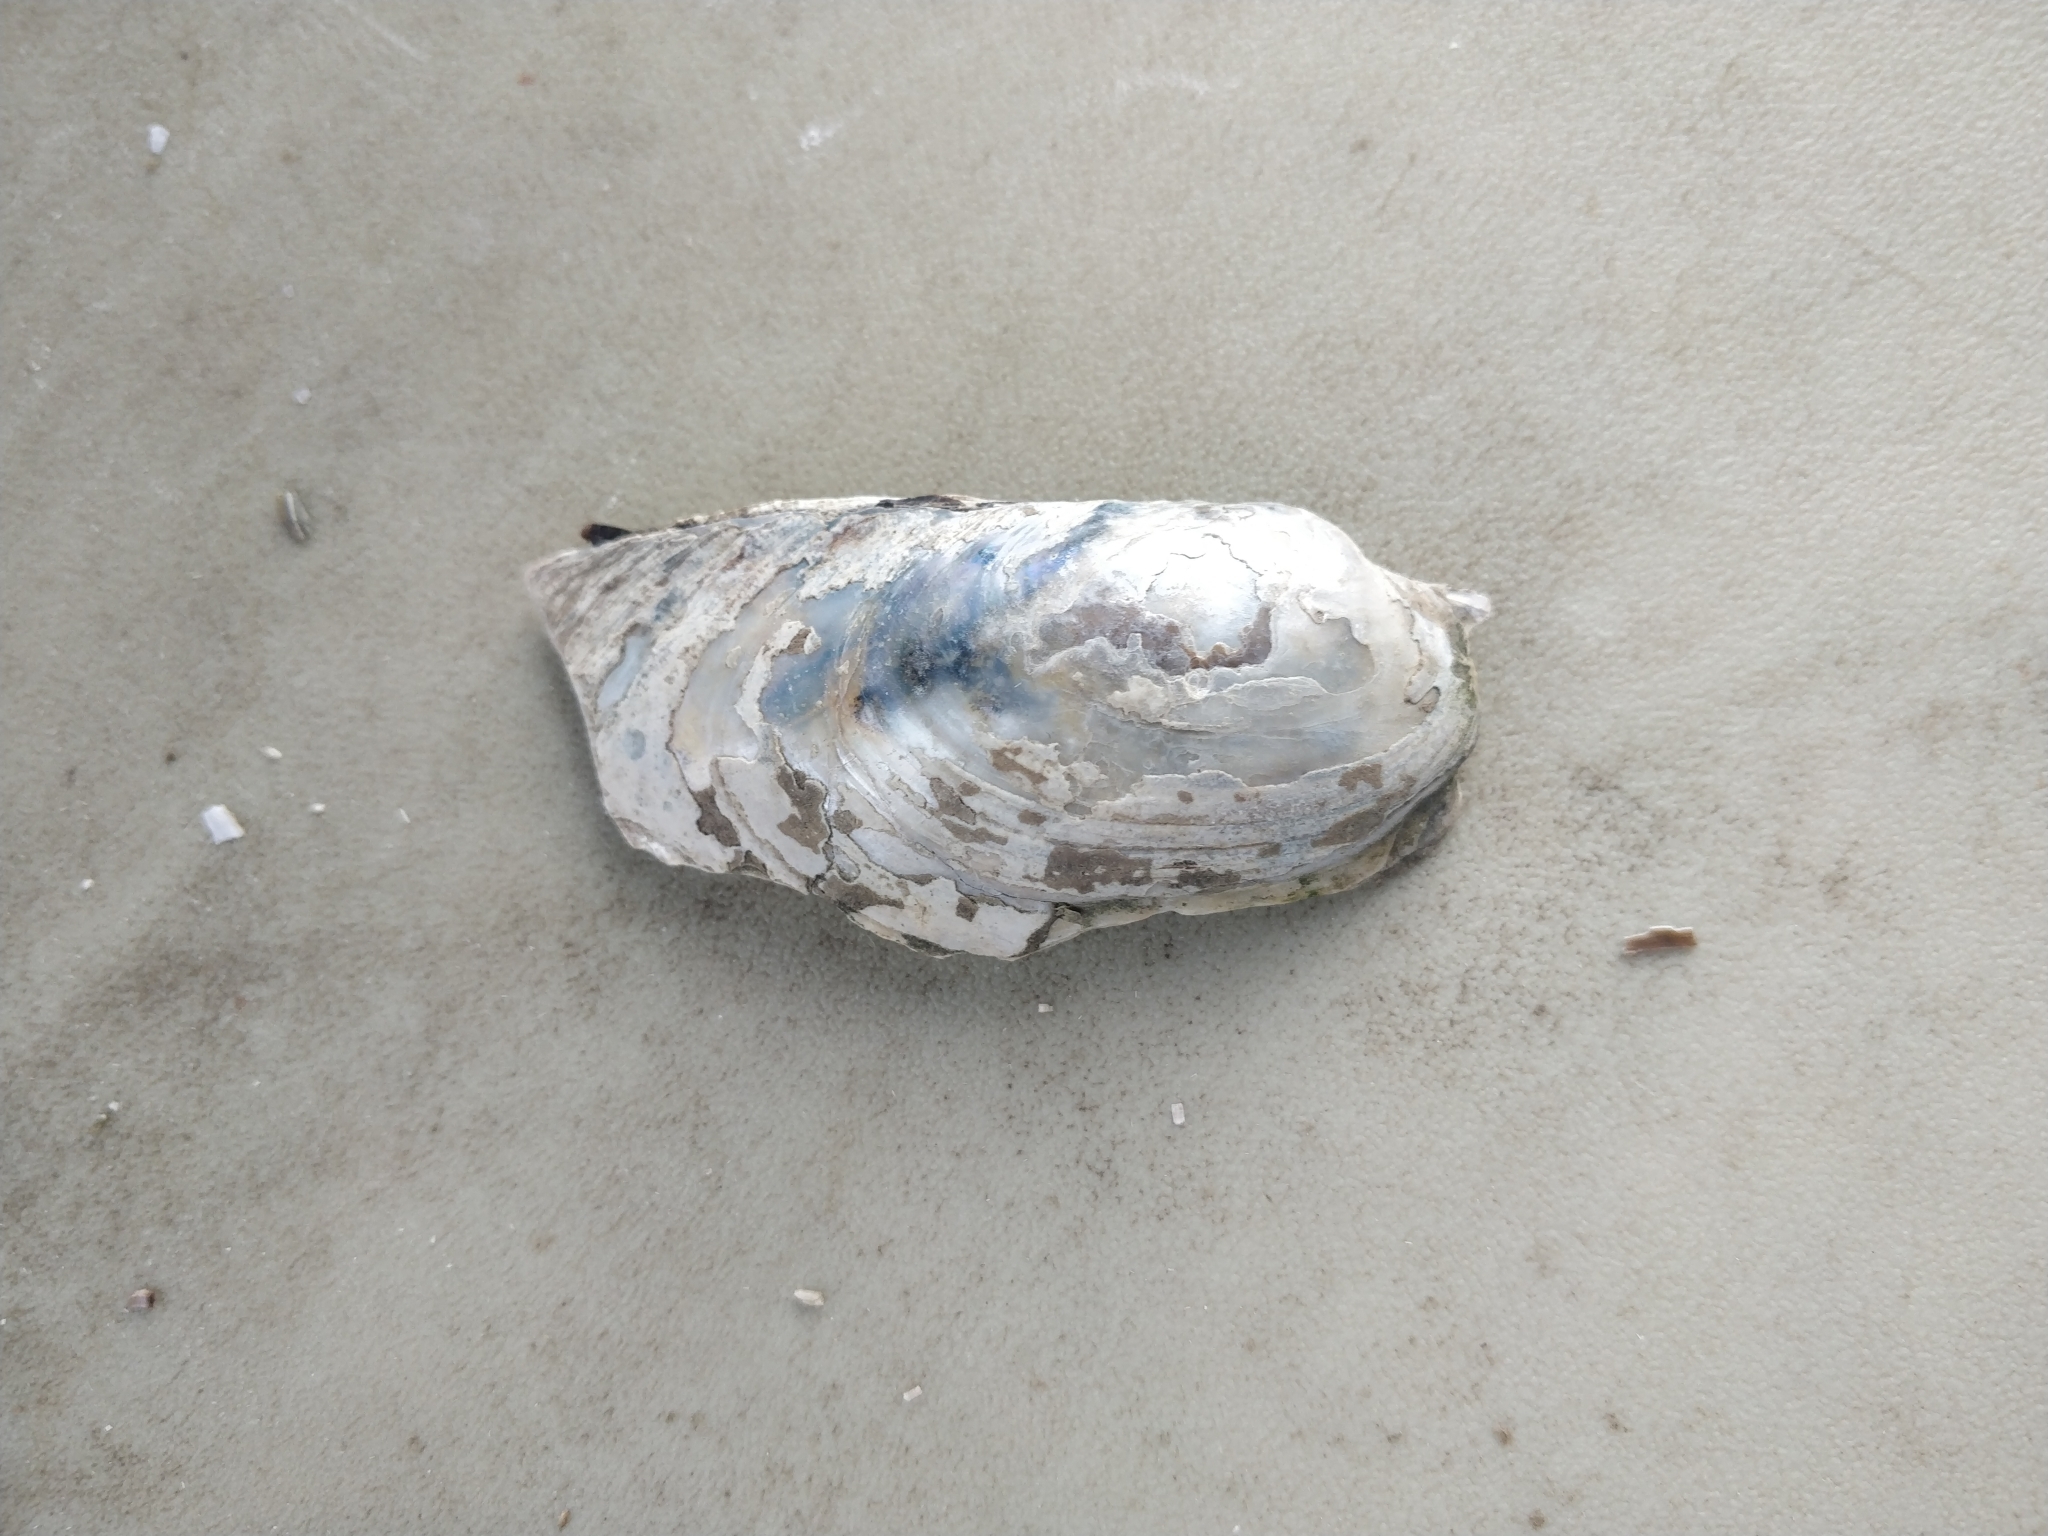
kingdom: Animalia
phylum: Mollusca
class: Bivalvia
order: Unionida
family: Unionidae
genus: Lampsilis
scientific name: Lampsilis siliquoidea
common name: Fatmucket
